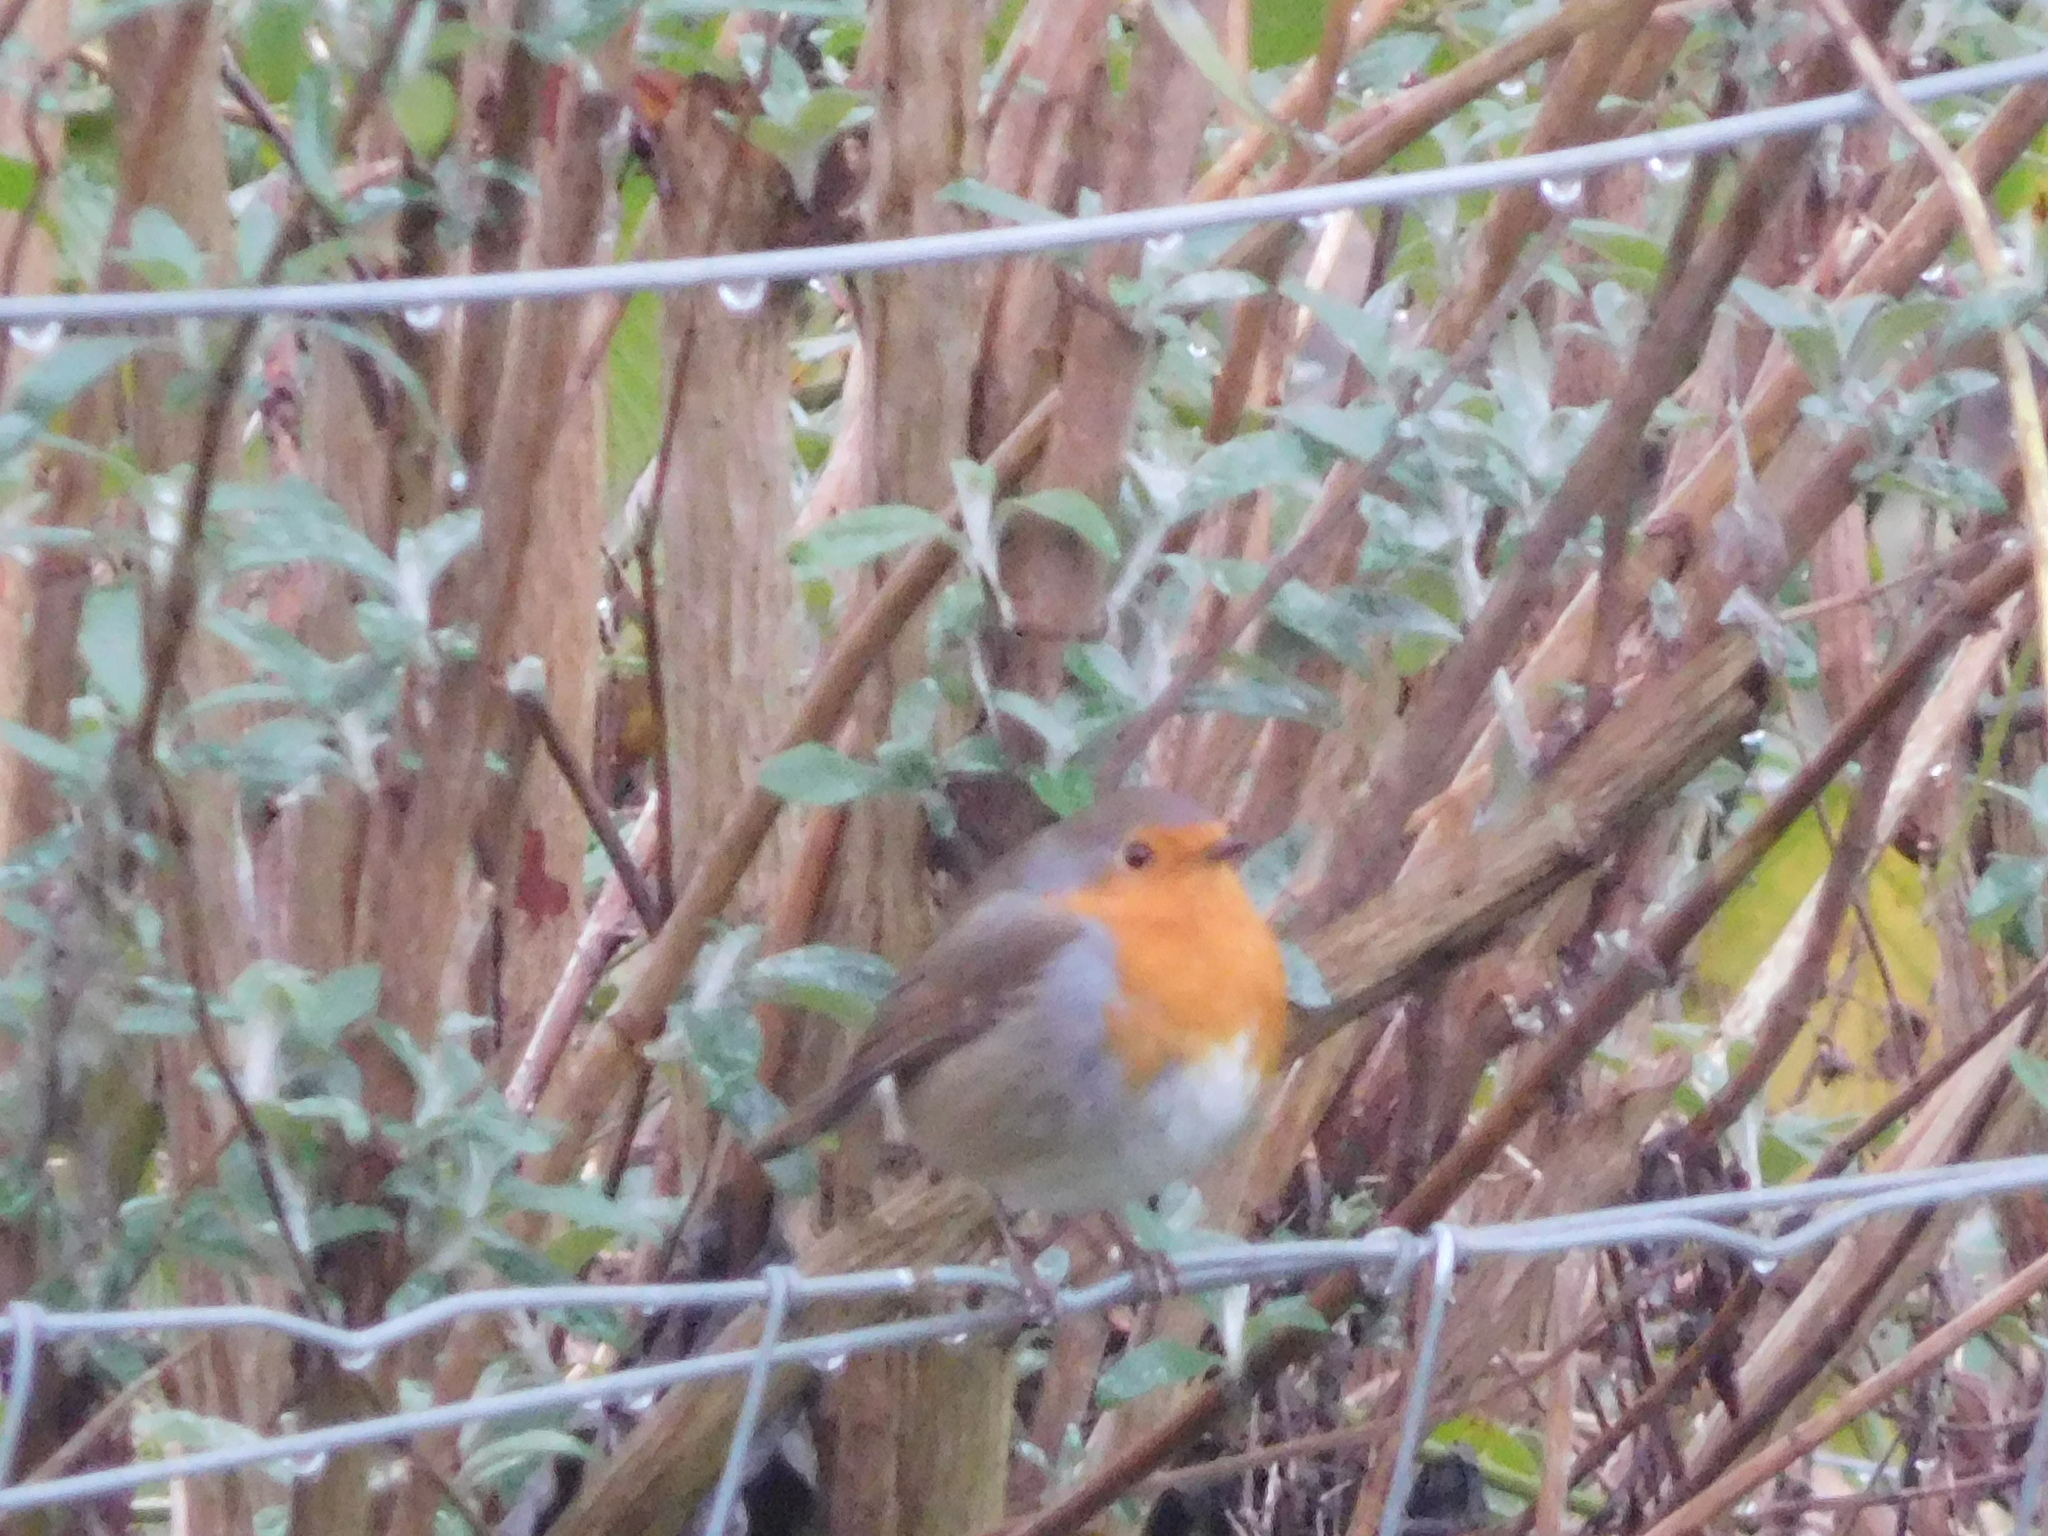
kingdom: Animalia
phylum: Chordata
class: Aves
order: Passeriformes
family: Muscicapidae
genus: Erithacus
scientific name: Erithacus rubecula
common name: European robin
